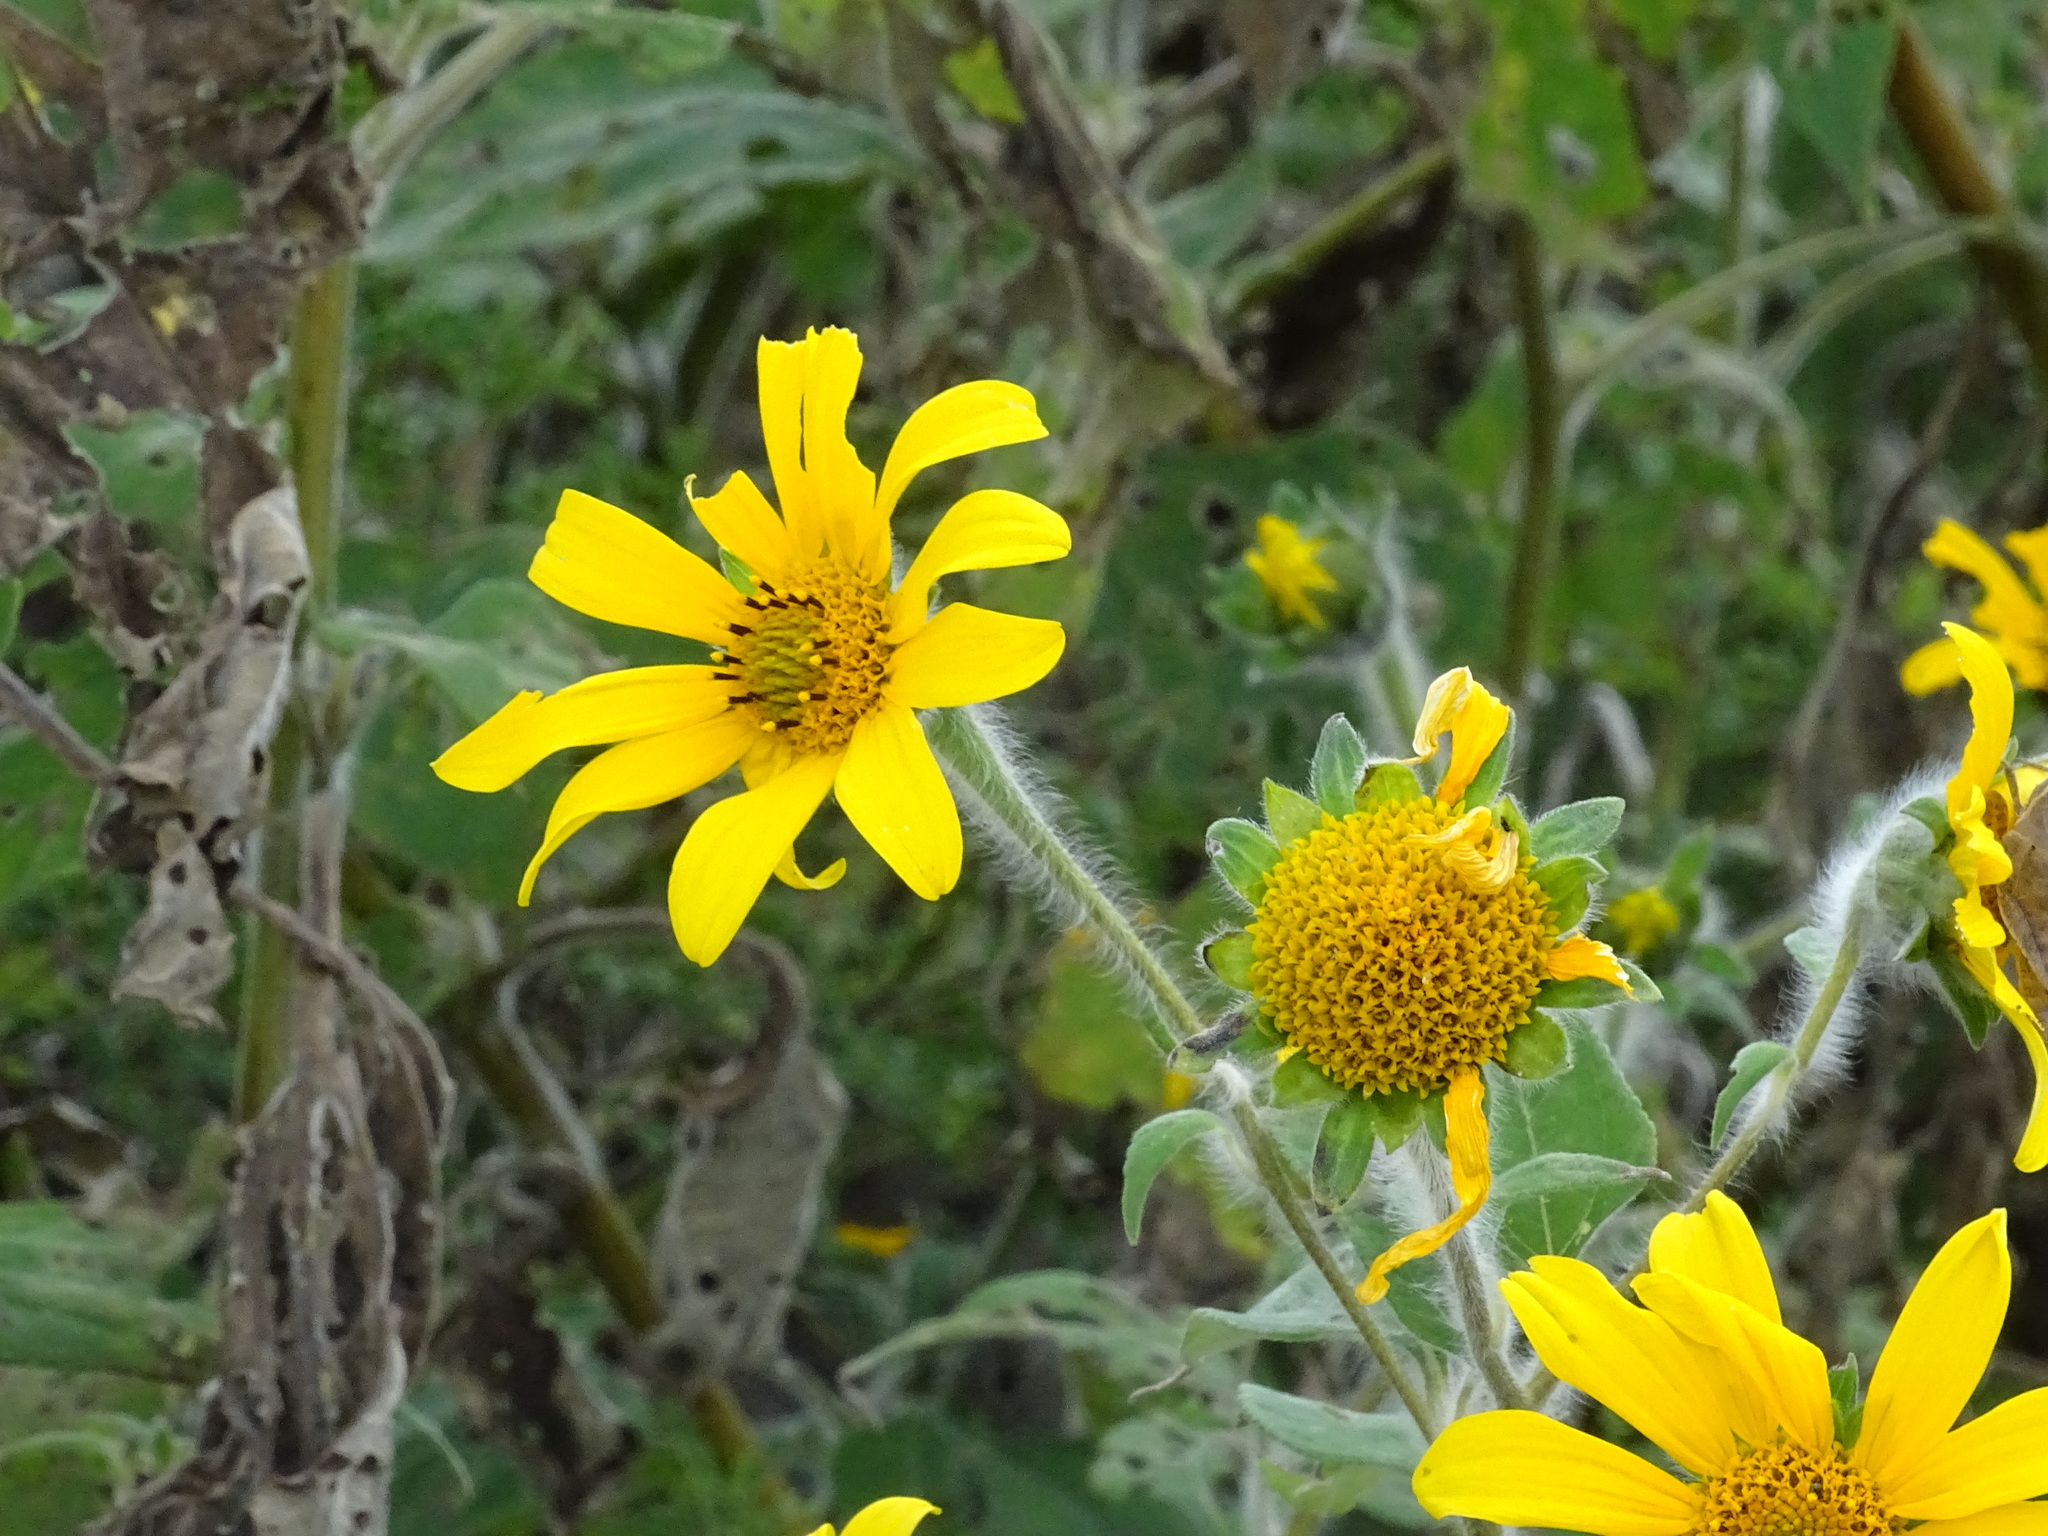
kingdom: Plantae
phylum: Tracheophyta
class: Magnoliopsida
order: Asterales
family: Asteraceae
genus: Tithonia
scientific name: Tithonia tubaeformis
